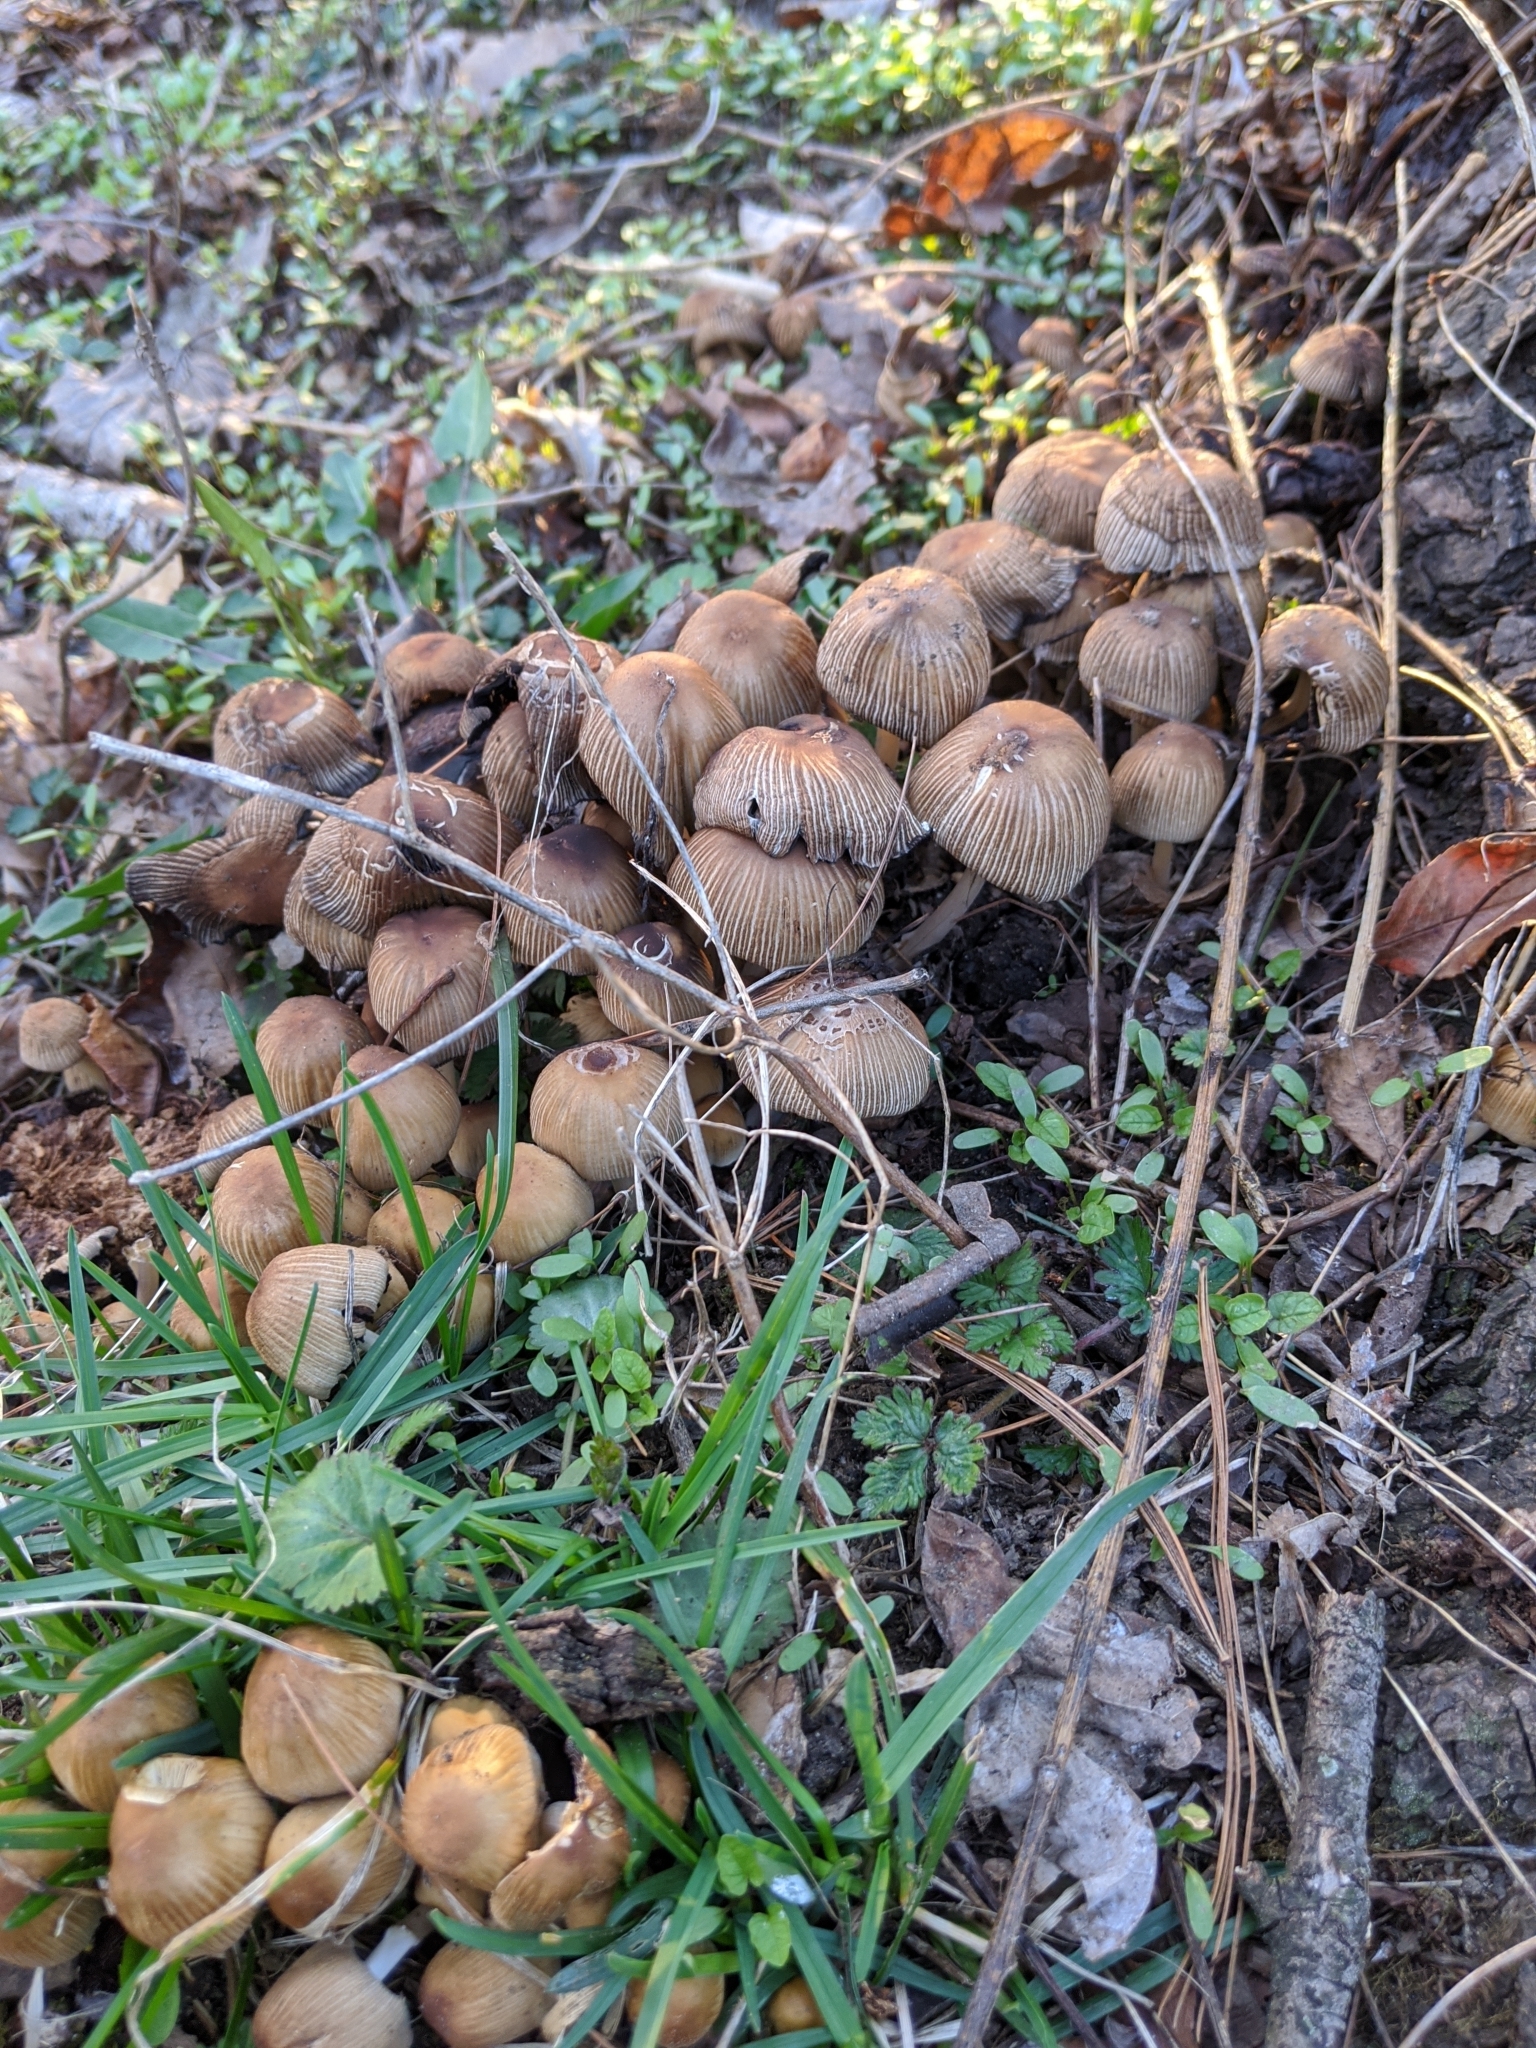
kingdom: Fungi
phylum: Basidiomycota
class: Agaricomycetes
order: Agaricales
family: Psathyrellaceae
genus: Coprinellus
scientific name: Coprinellus micaceus
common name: Glistening ink-cap
